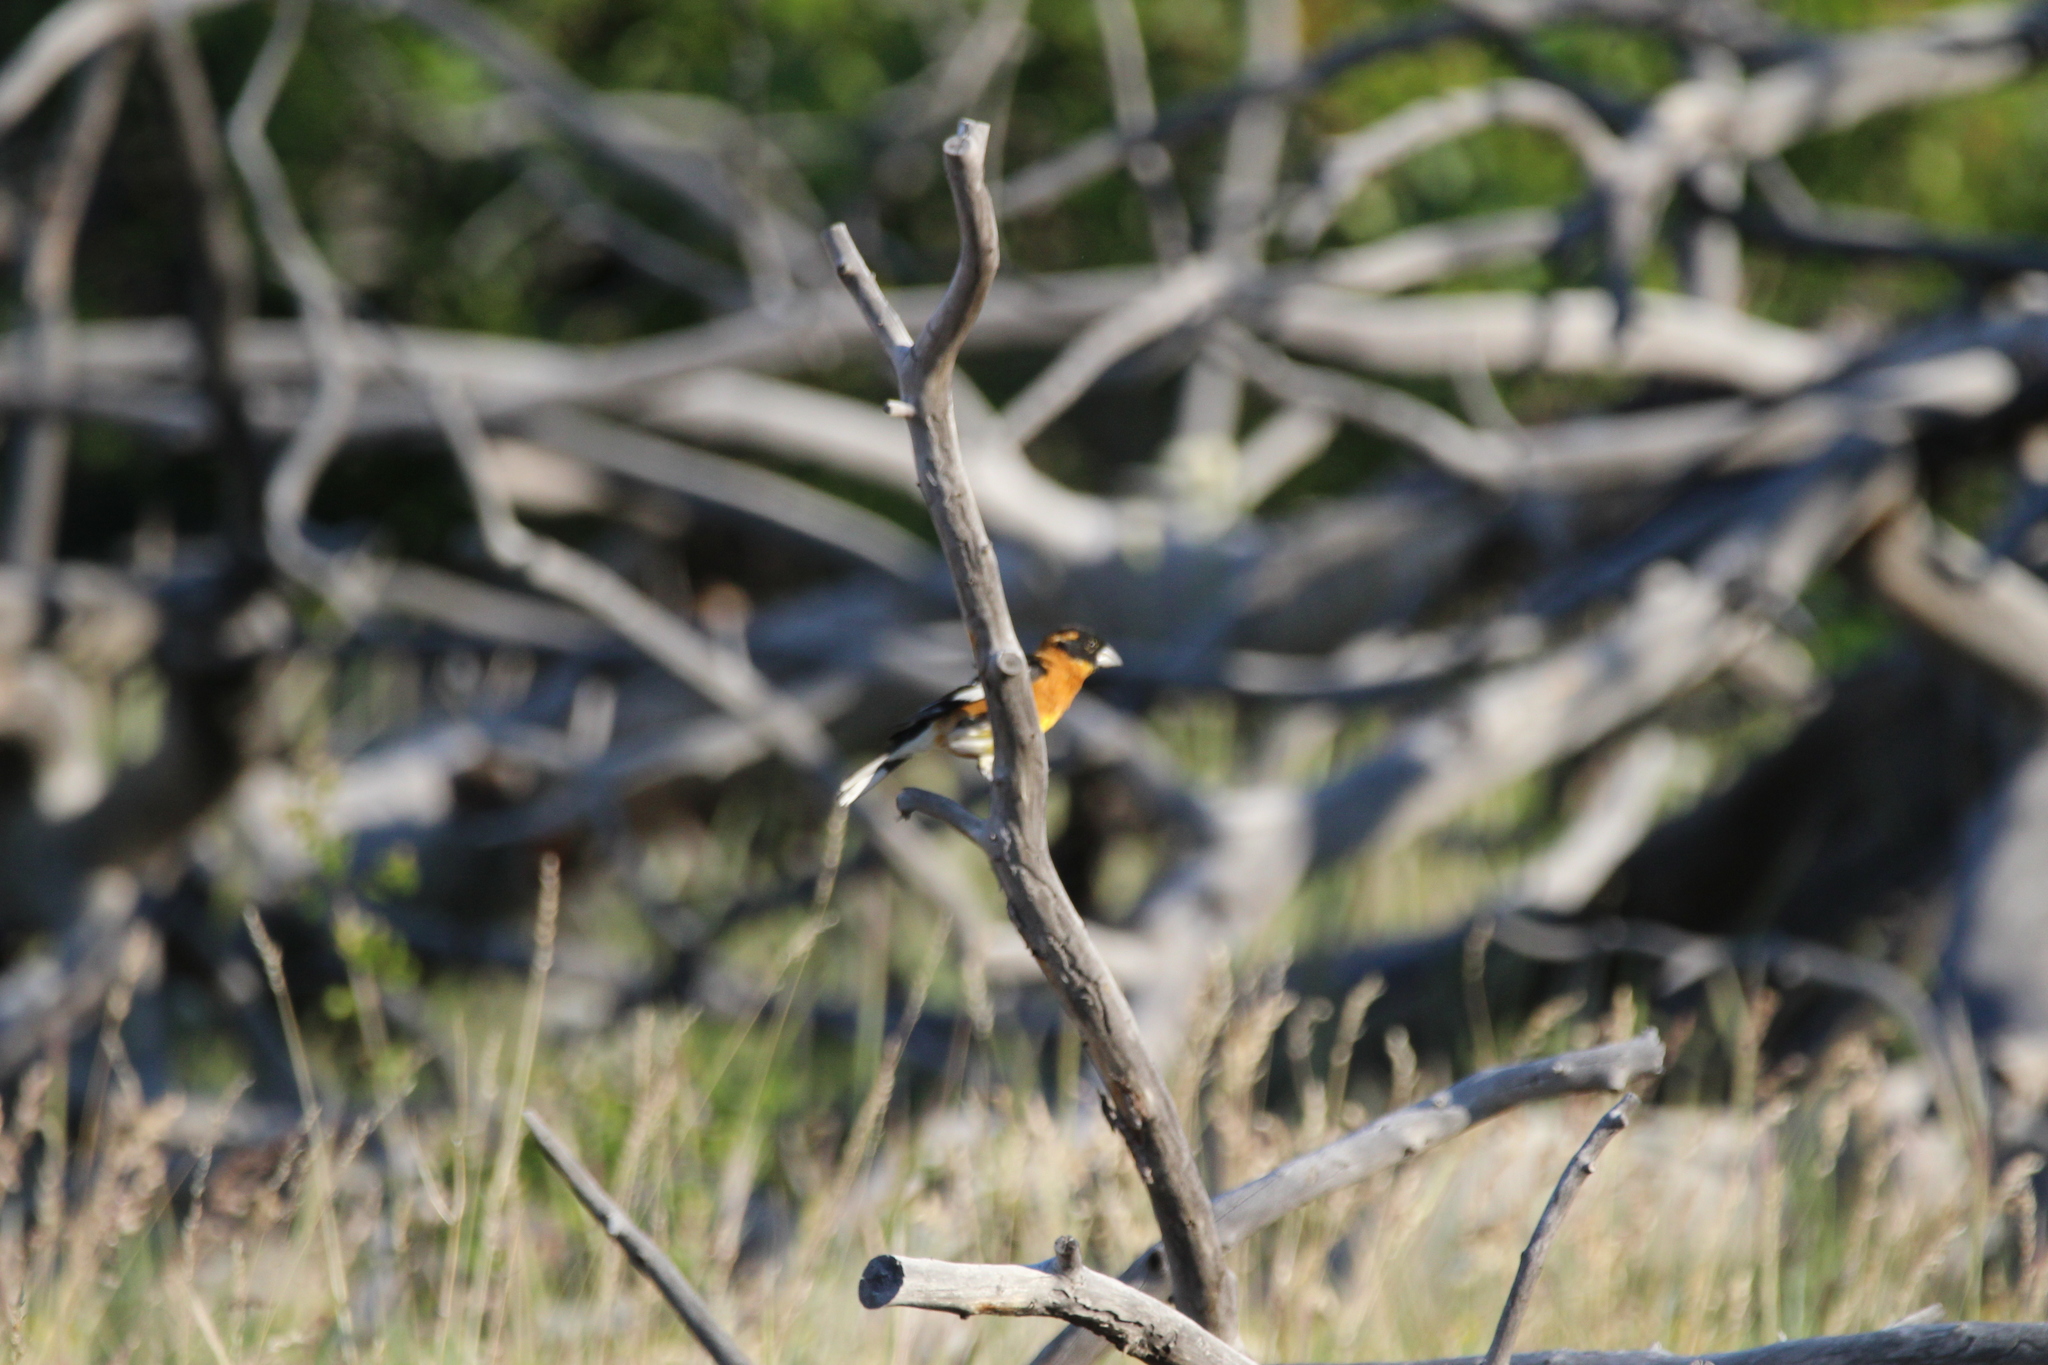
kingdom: Animalia
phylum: Chordata
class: Aves
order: Passeriformes
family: Cardinalidae
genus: Pheucticus
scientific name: Pheucticus melanocephalus
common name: Black-headed grosbeak
